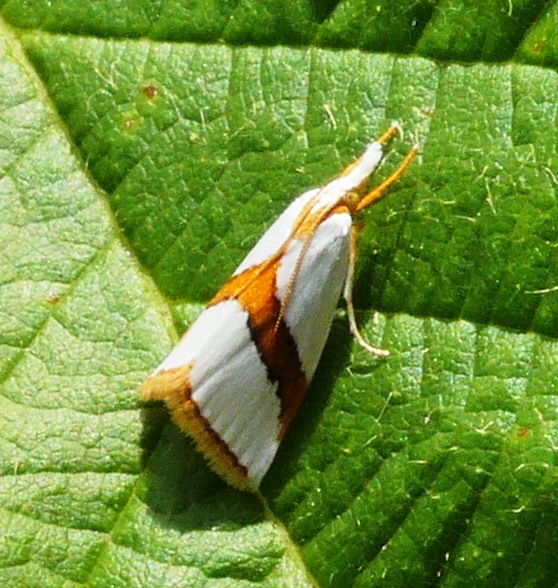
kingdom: Animalia
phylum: Arthropoda
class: Insecta
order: Lepidoptera
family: Crambidae
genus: Vaxi
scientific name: Vaxi critica
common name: Straight-lined vaxi moth
